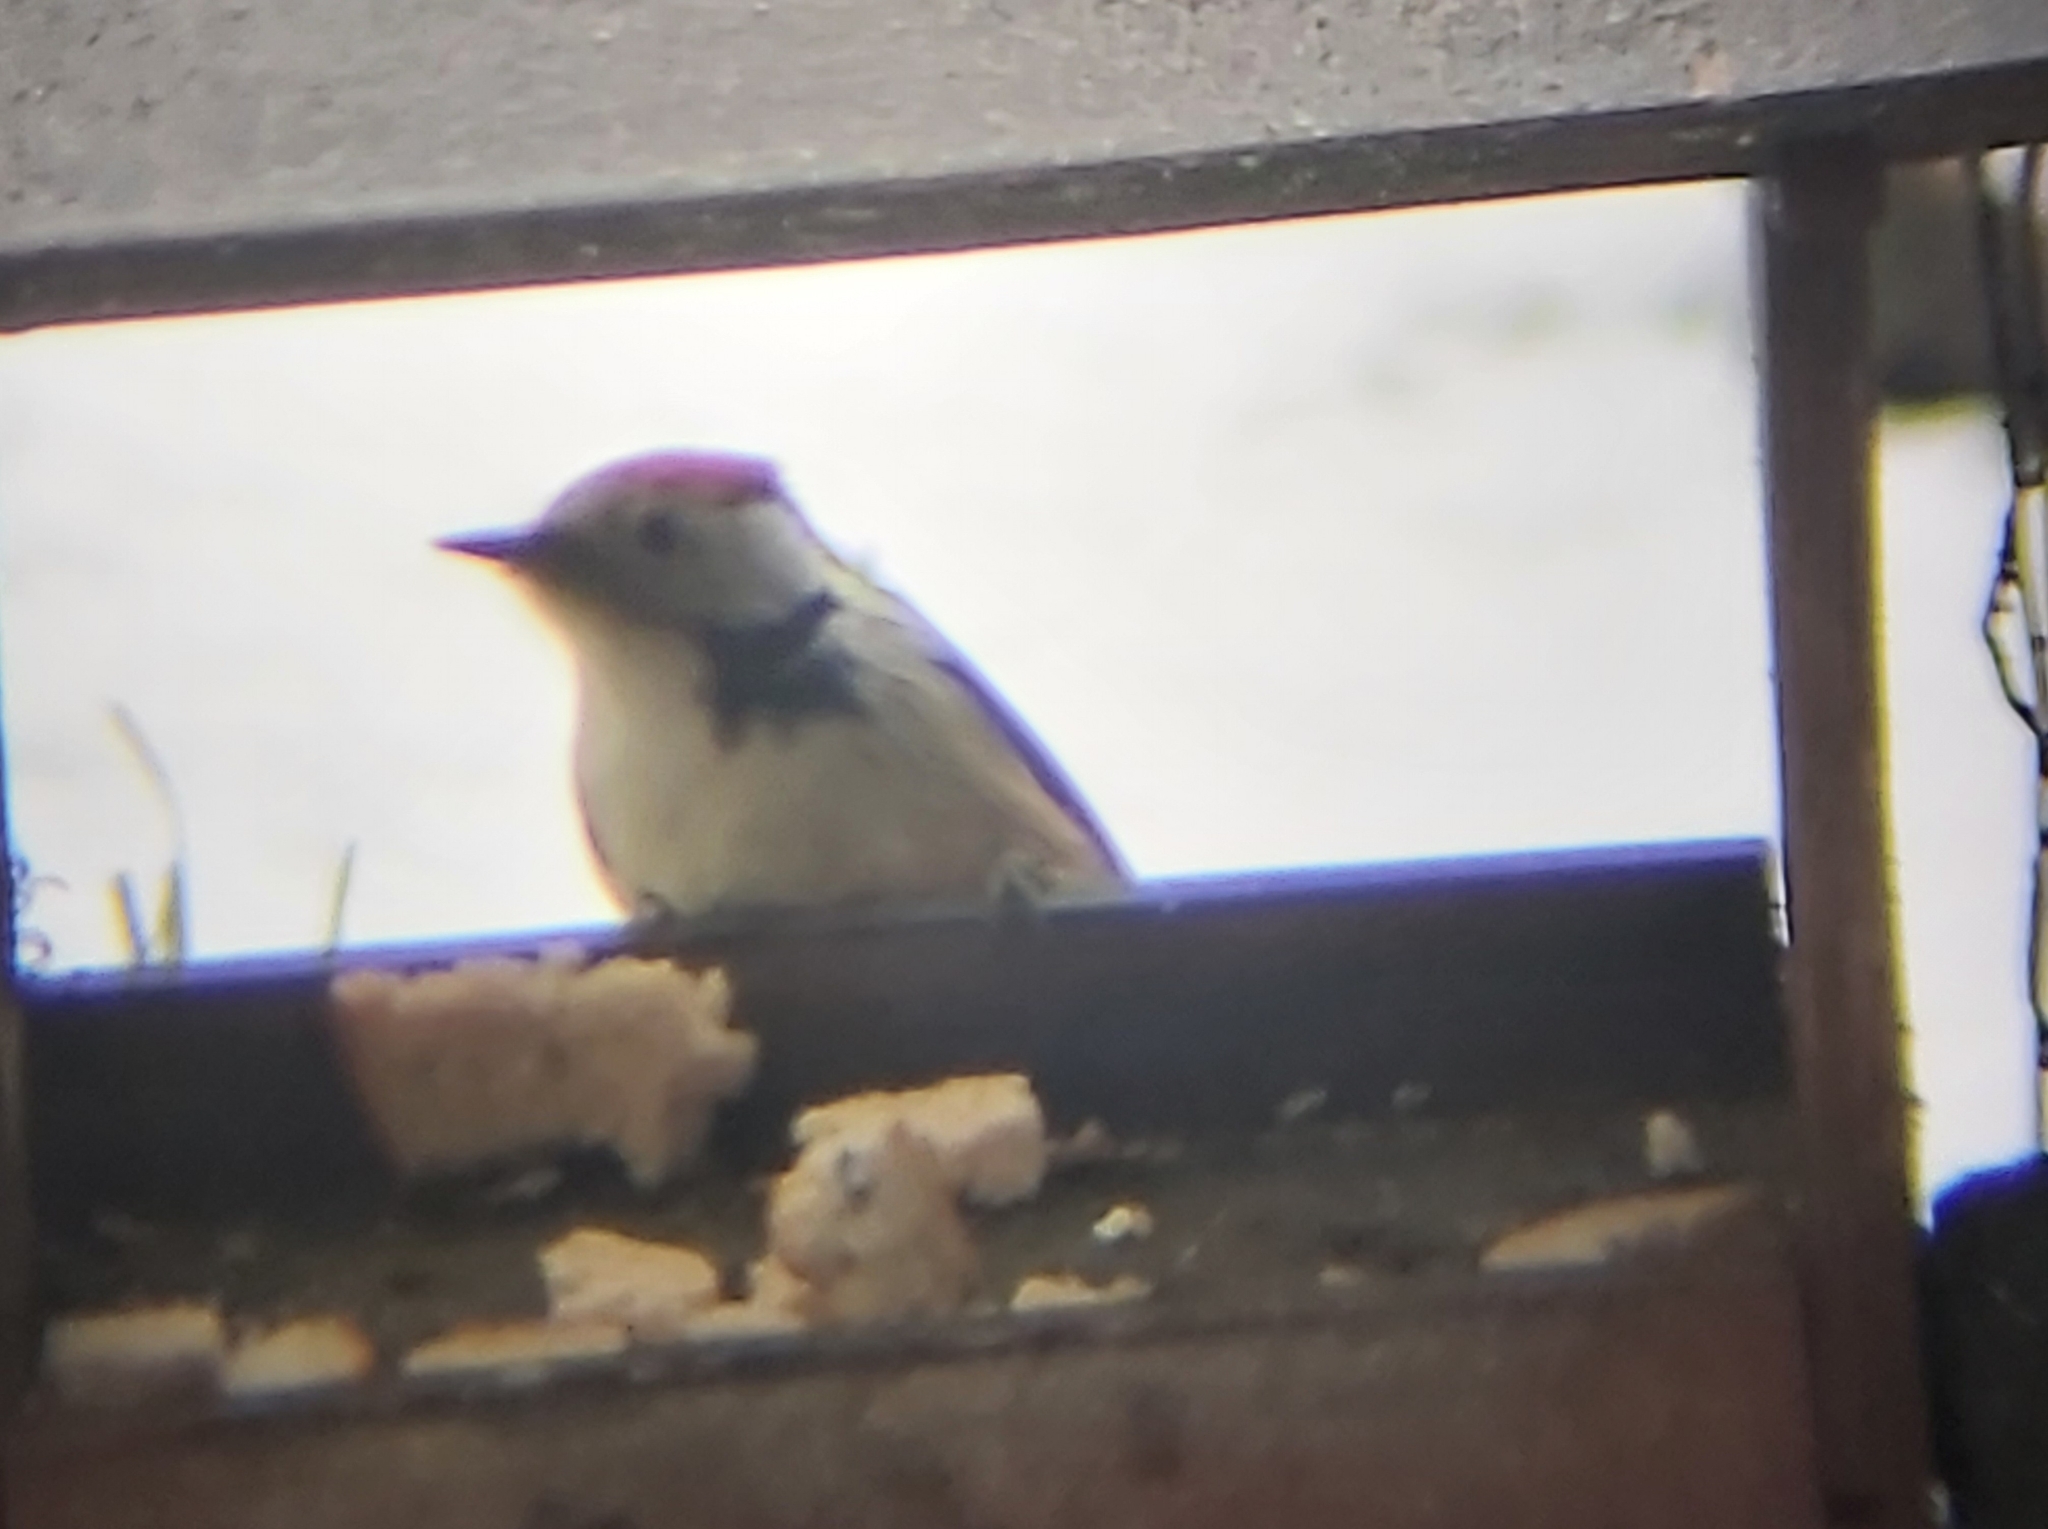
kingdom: Animalia
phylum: Chordata
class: Aves
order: Piciformes
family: Picidae
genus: Dendrocoptes
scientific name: Dendrocoptes medius
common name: Middle spotted woodpecker
